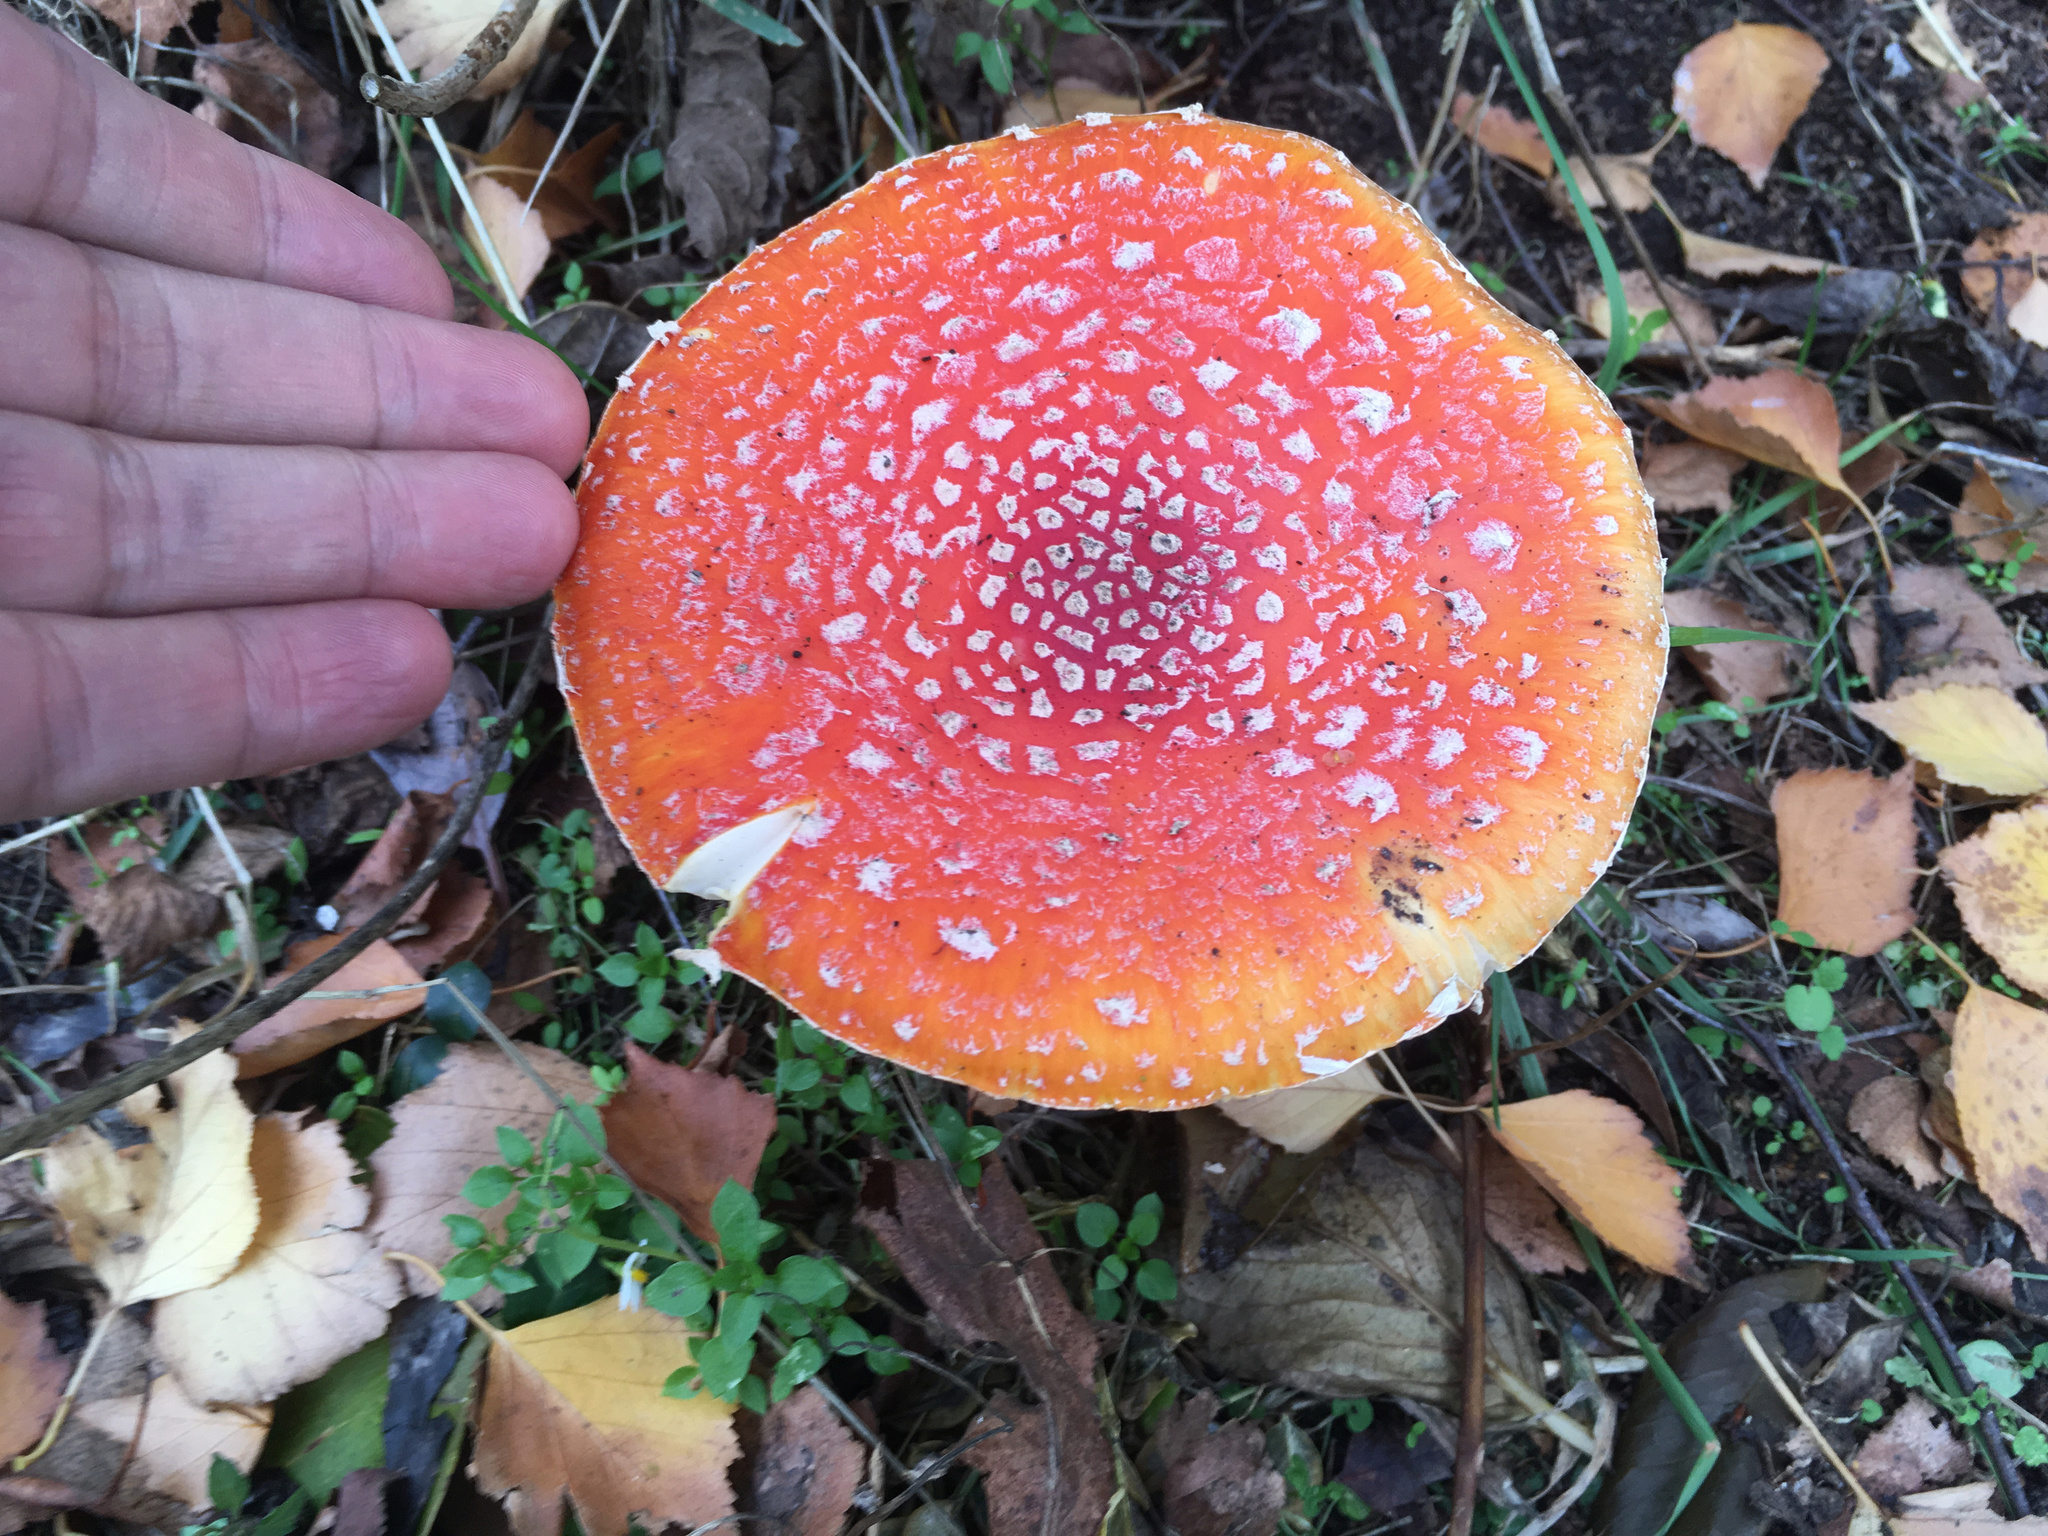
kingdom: Fungi
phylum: Basidiomycota
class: Agaricomycetes
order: Agaricales
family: Amanitaceae
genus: Amanita
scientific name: Amanita muscaria
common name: Fly agaric
